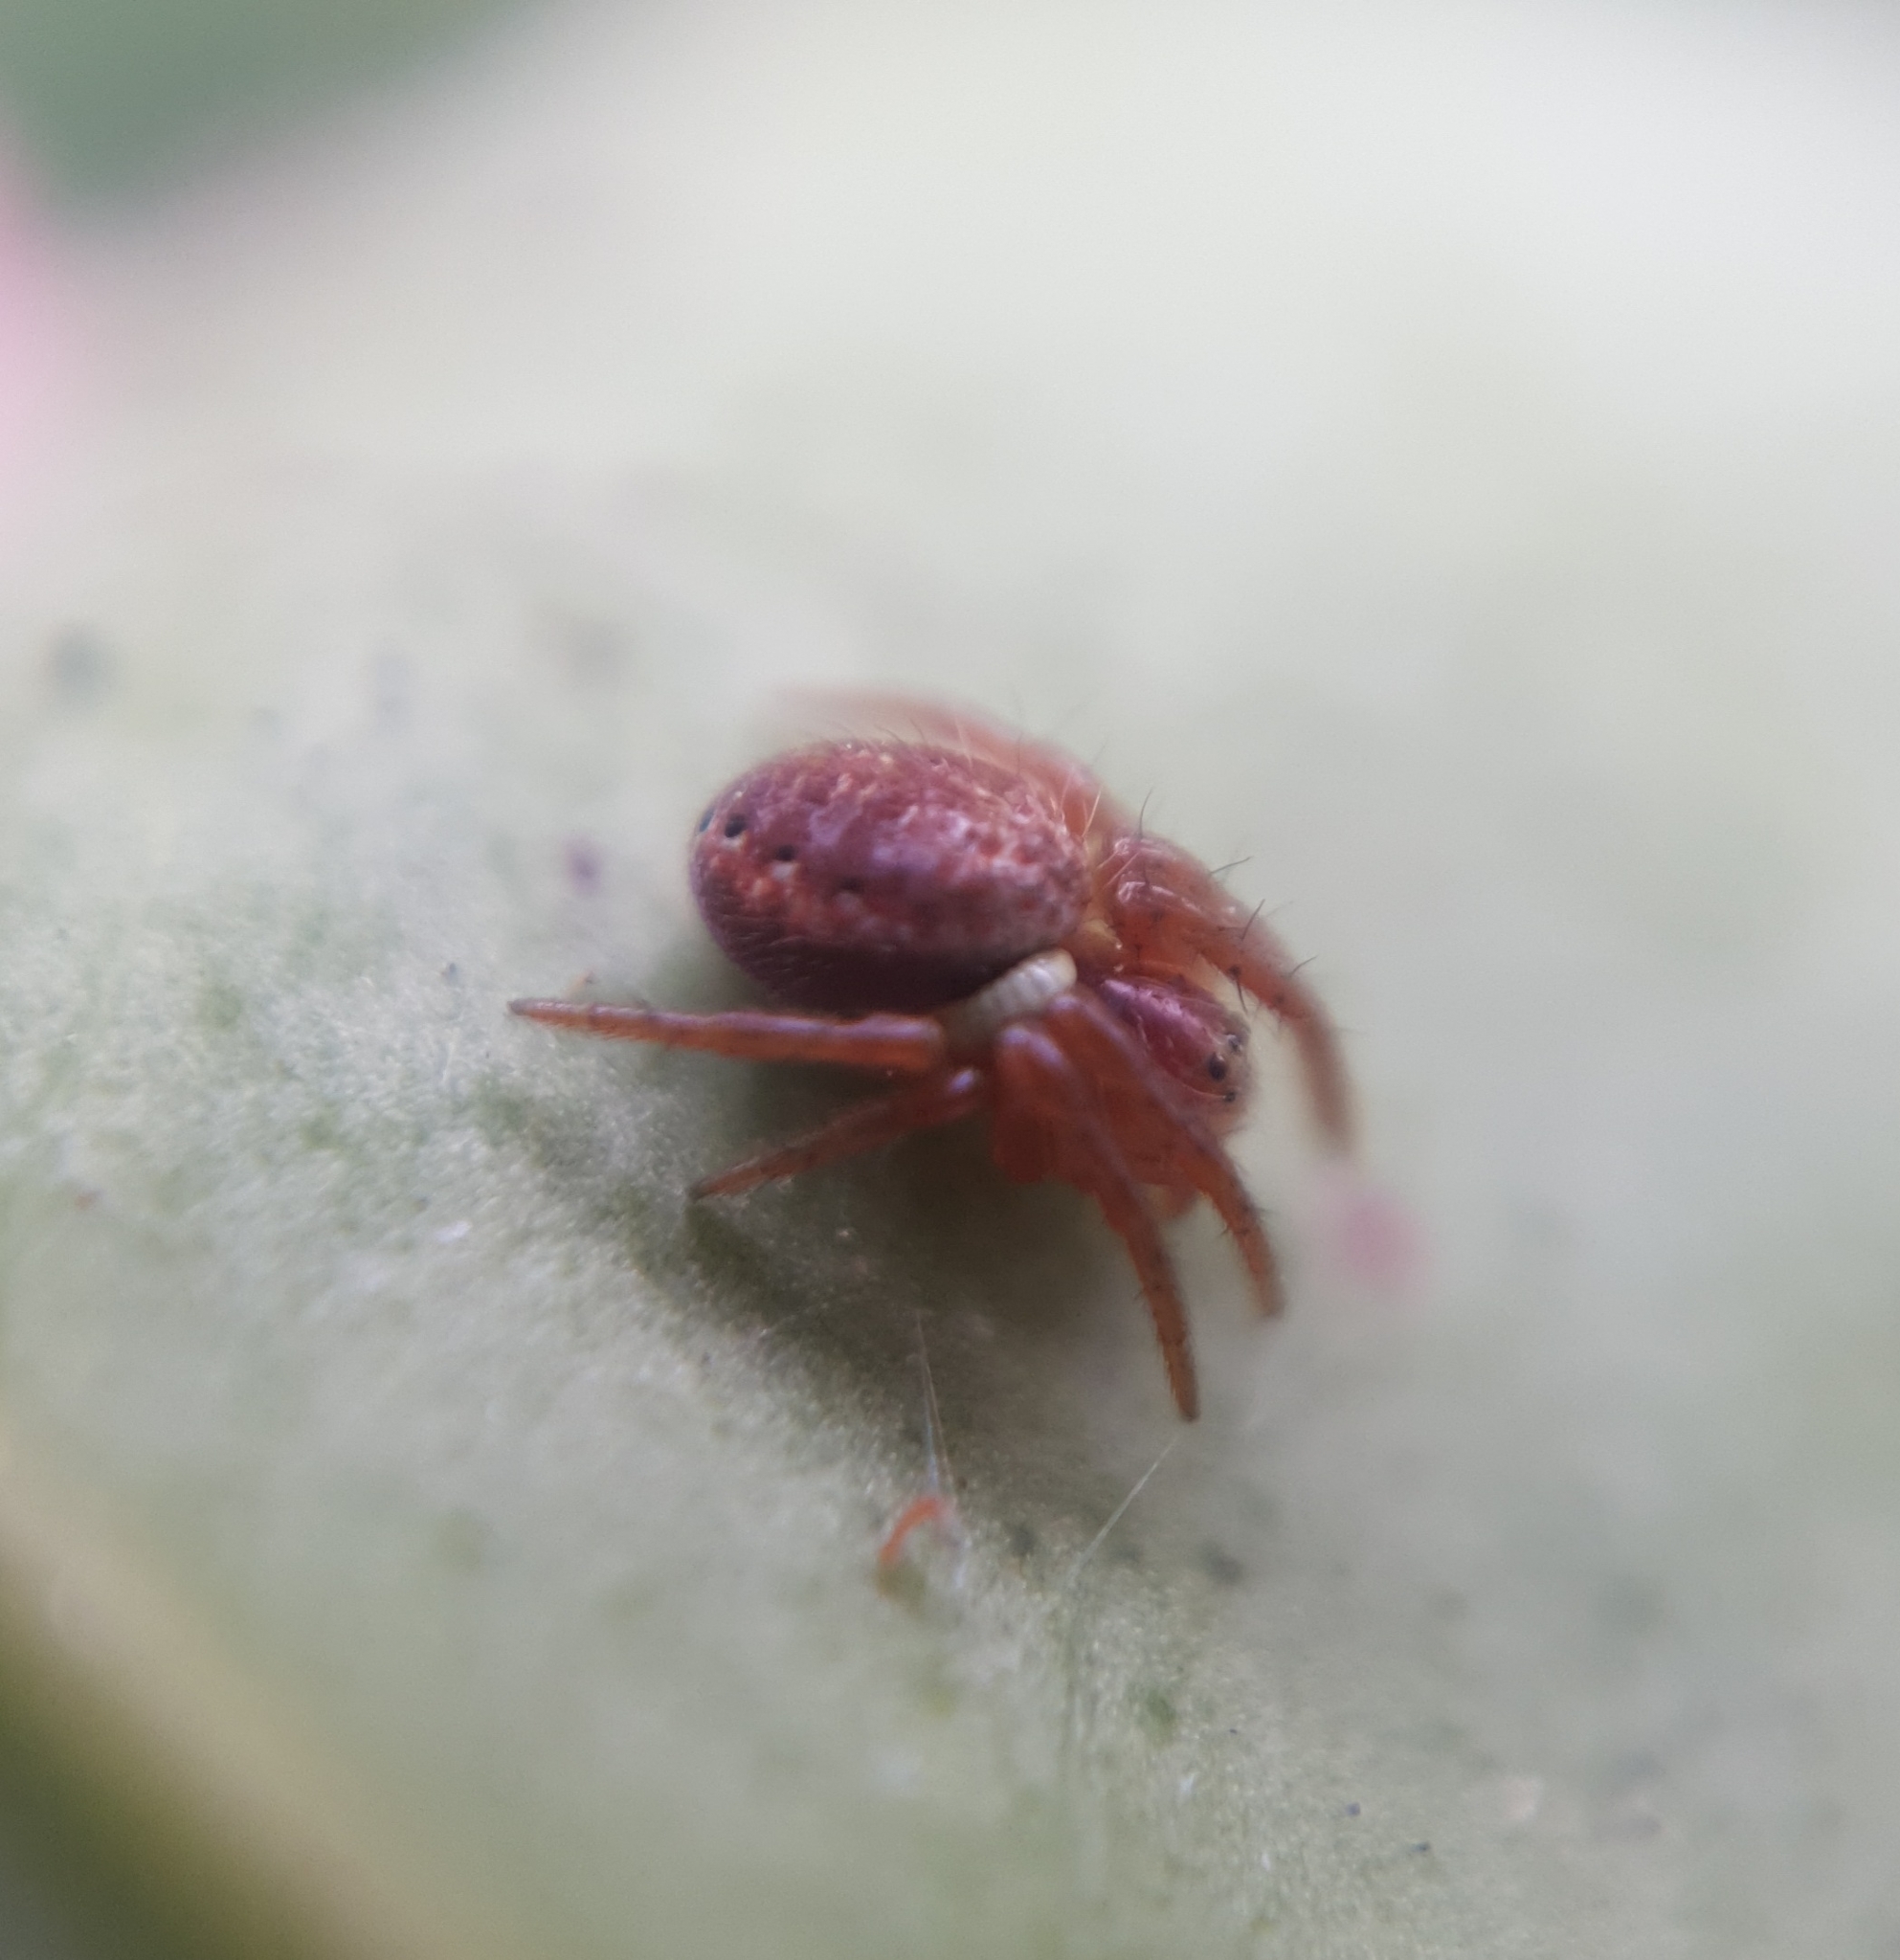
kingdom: Animalia
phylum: Arthropoda
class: Arachnida
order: Araneae
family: Araneidae
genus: Araniella
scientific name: Araniella
